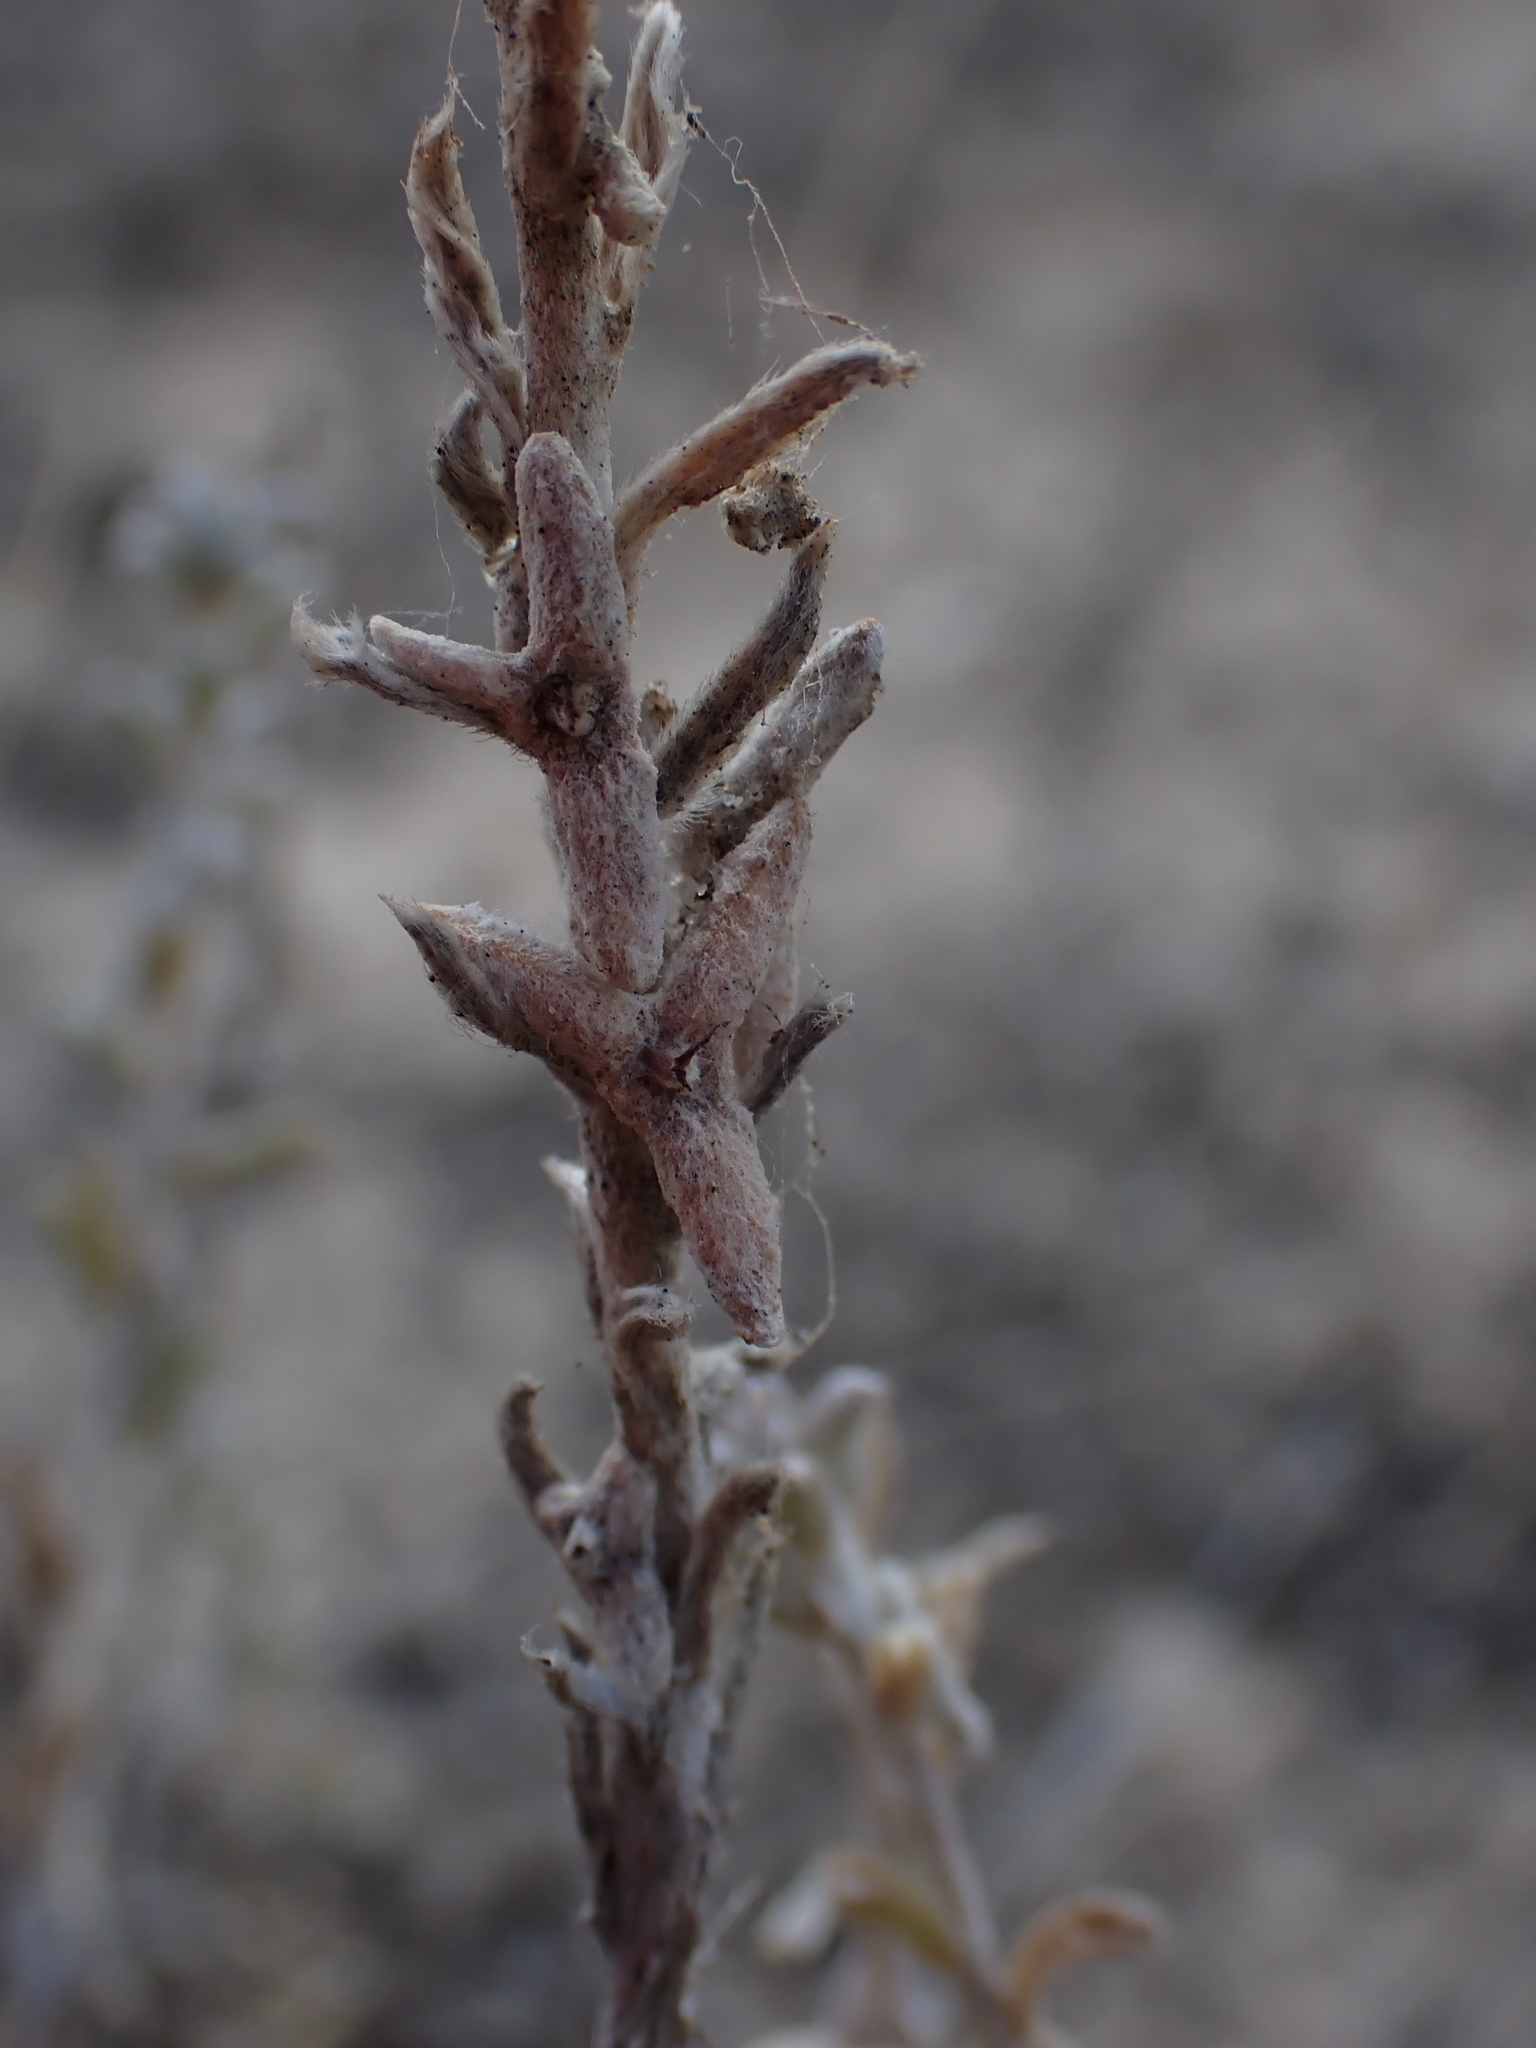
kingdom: Plantae
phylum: Tracheophyta
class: Magnoliopsida
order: Caryophyllales
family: Amaranthaceae
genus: Malacocera
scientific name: Malacocera tricornis
